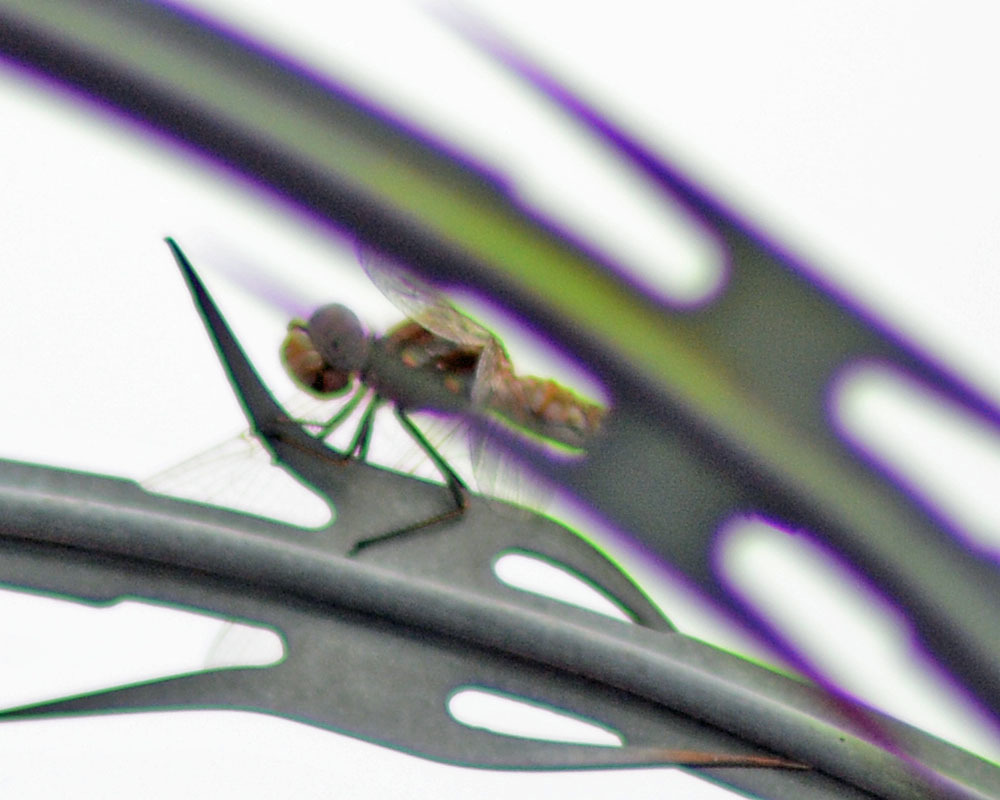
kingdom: Animalia
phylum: Arthropoda
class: Insecta
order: Odonata
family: Libellulidae
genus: Sympetrum
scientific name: Sympetrum corruptum
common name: Variegated meadowhawk
